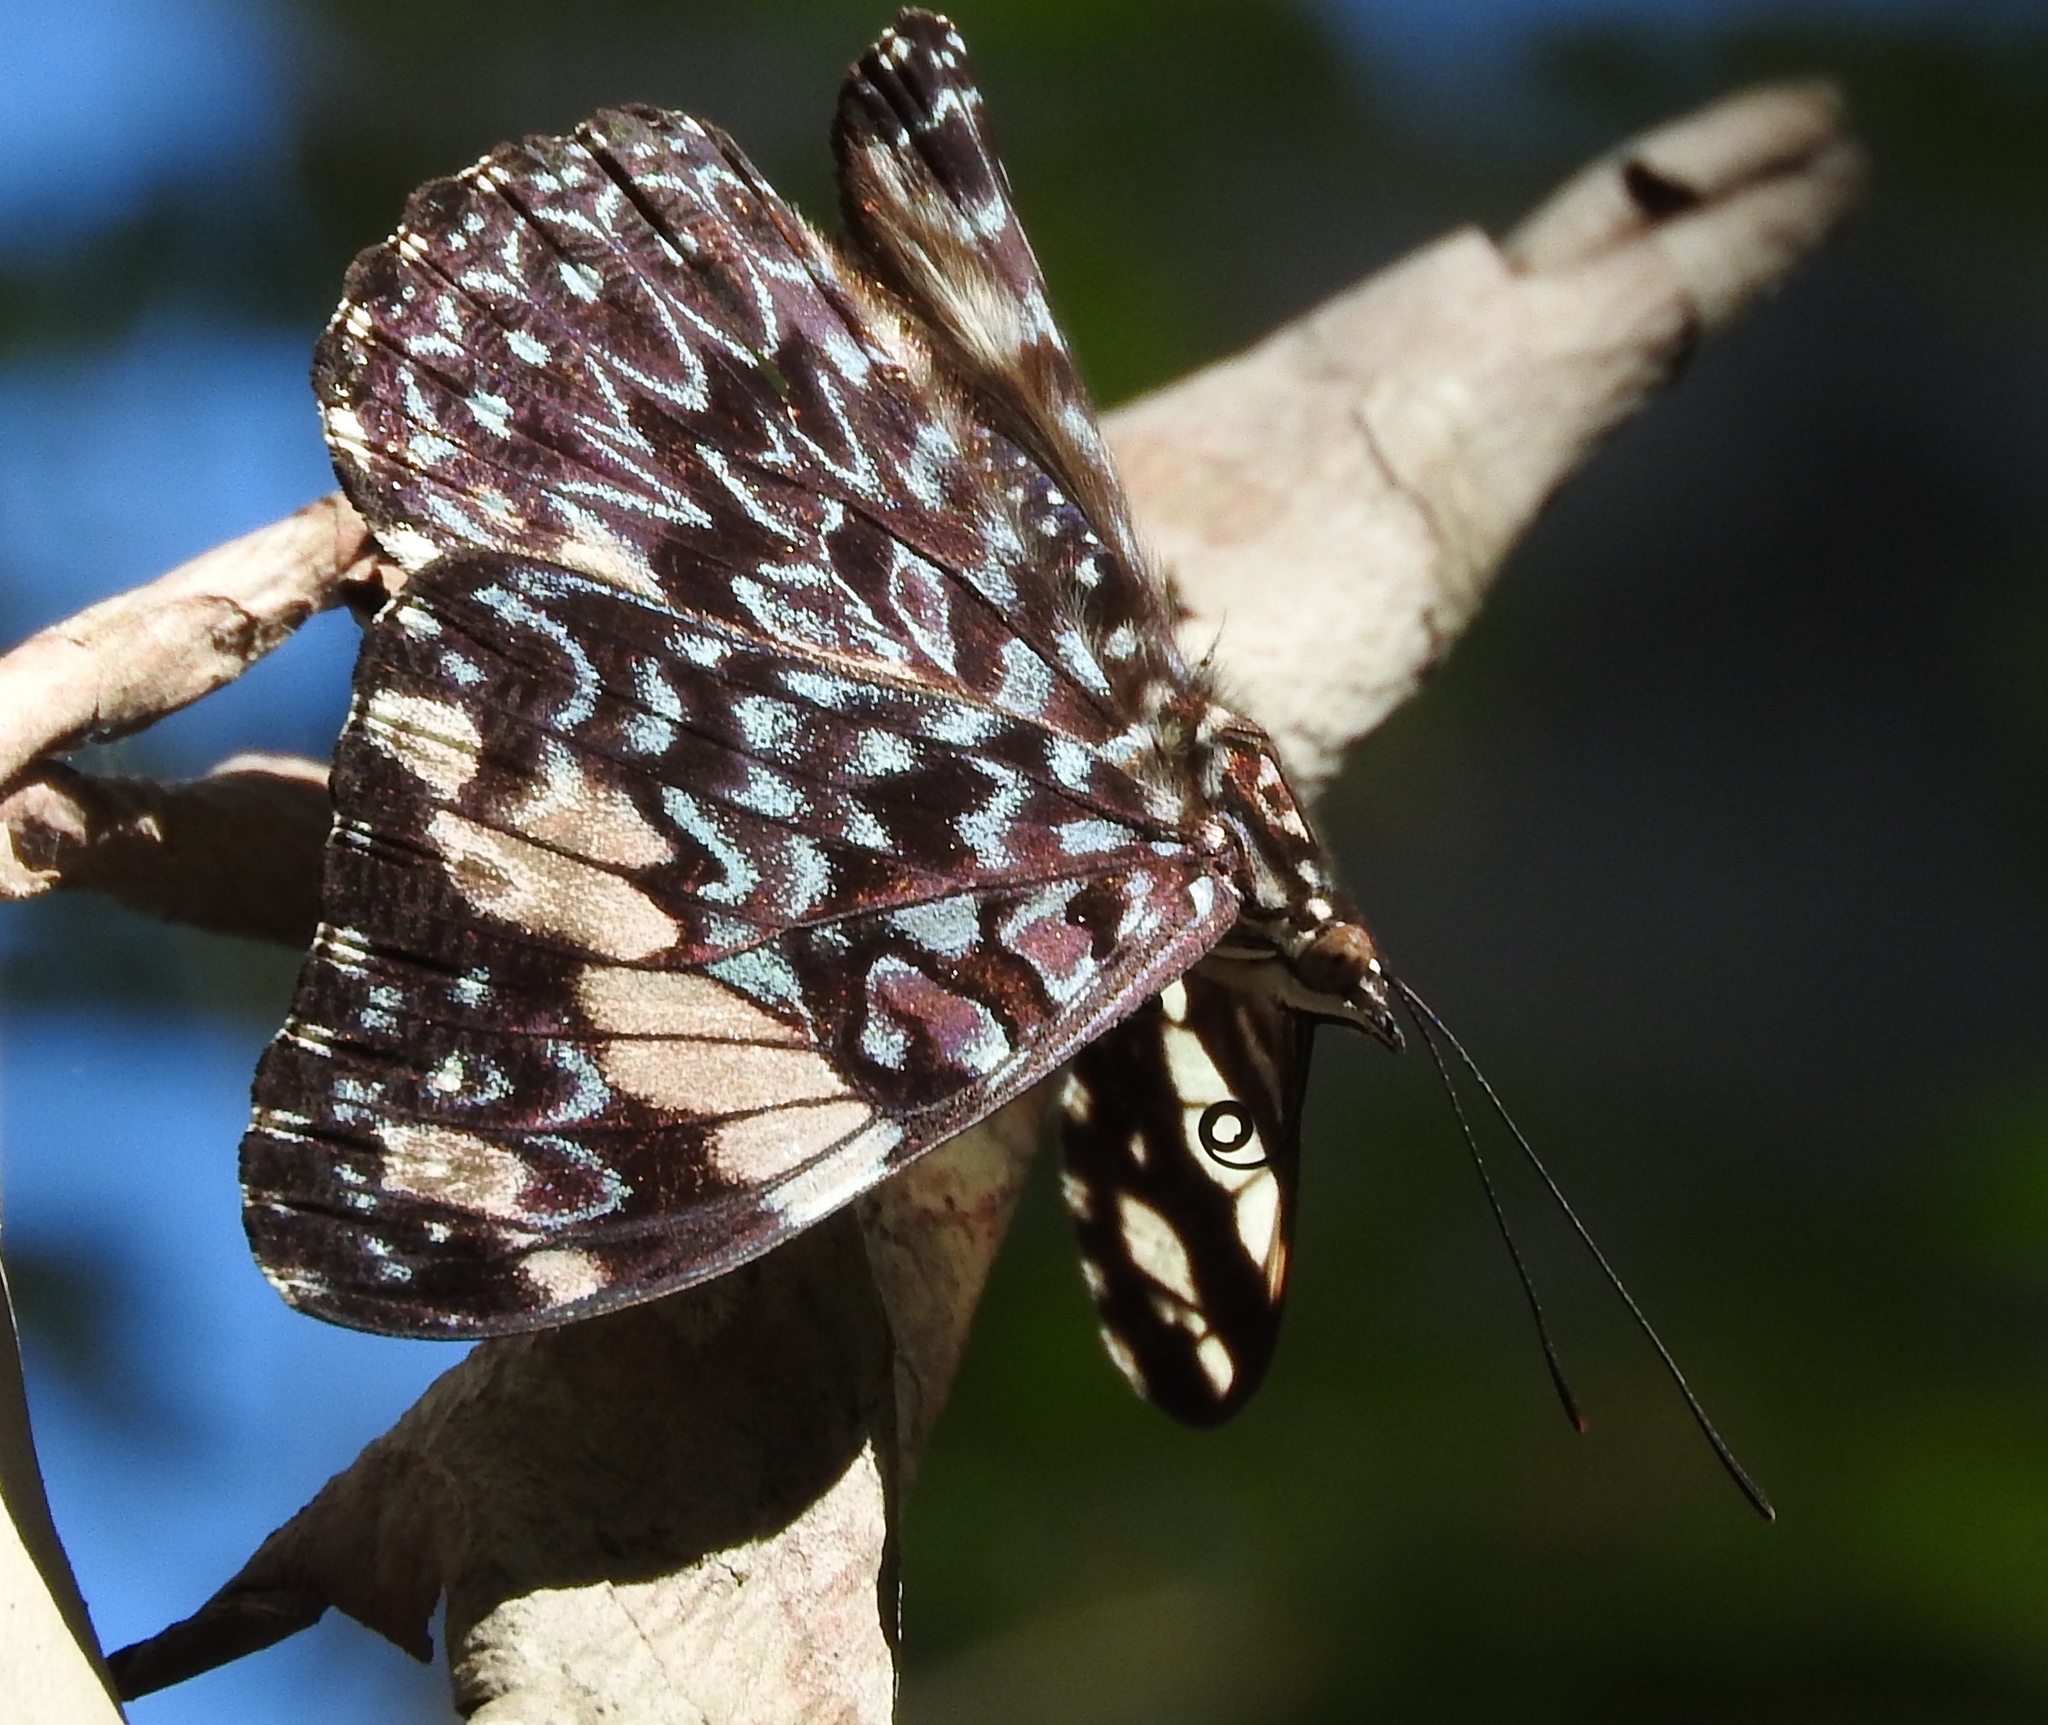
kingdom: Animalia
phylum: Arthropoda
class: Insecta
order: Lepidoptera
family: Nymphalidae
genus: Hamadryas
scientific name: Hamadryas amphinome
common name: Red cracker
